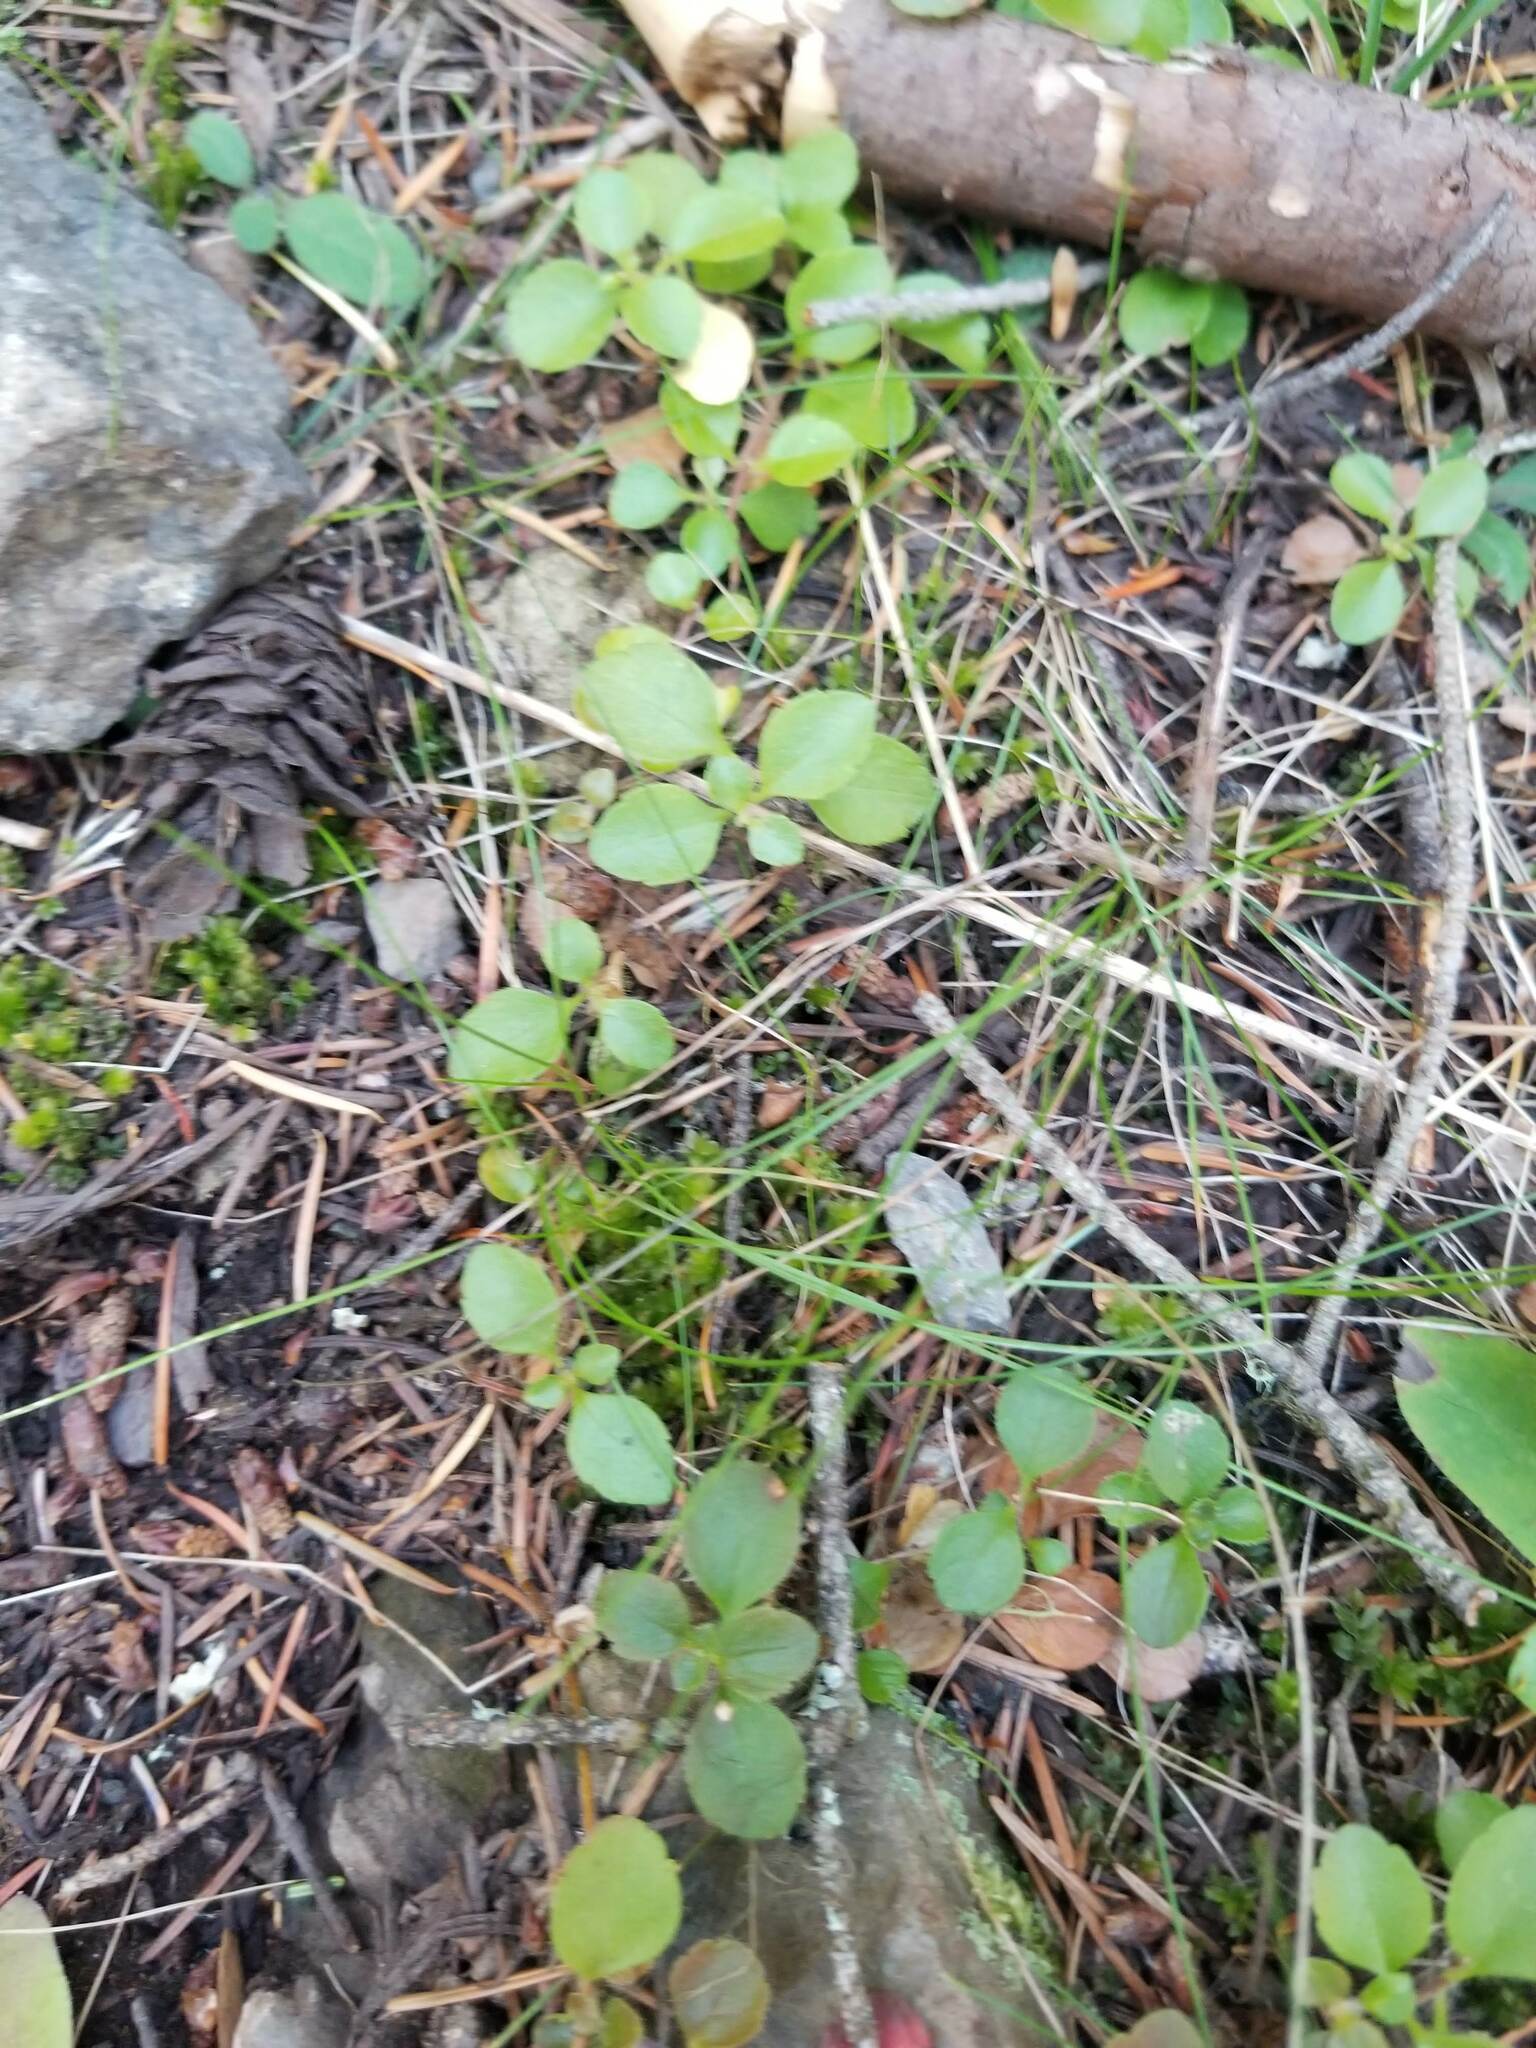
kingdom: Plantae
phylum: Tracheophyta
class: Magnoliopsida
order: Dipsacales
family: Caprifoliaceae
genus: Linnaea
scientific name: Linnaea borealis
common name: Twinflower
